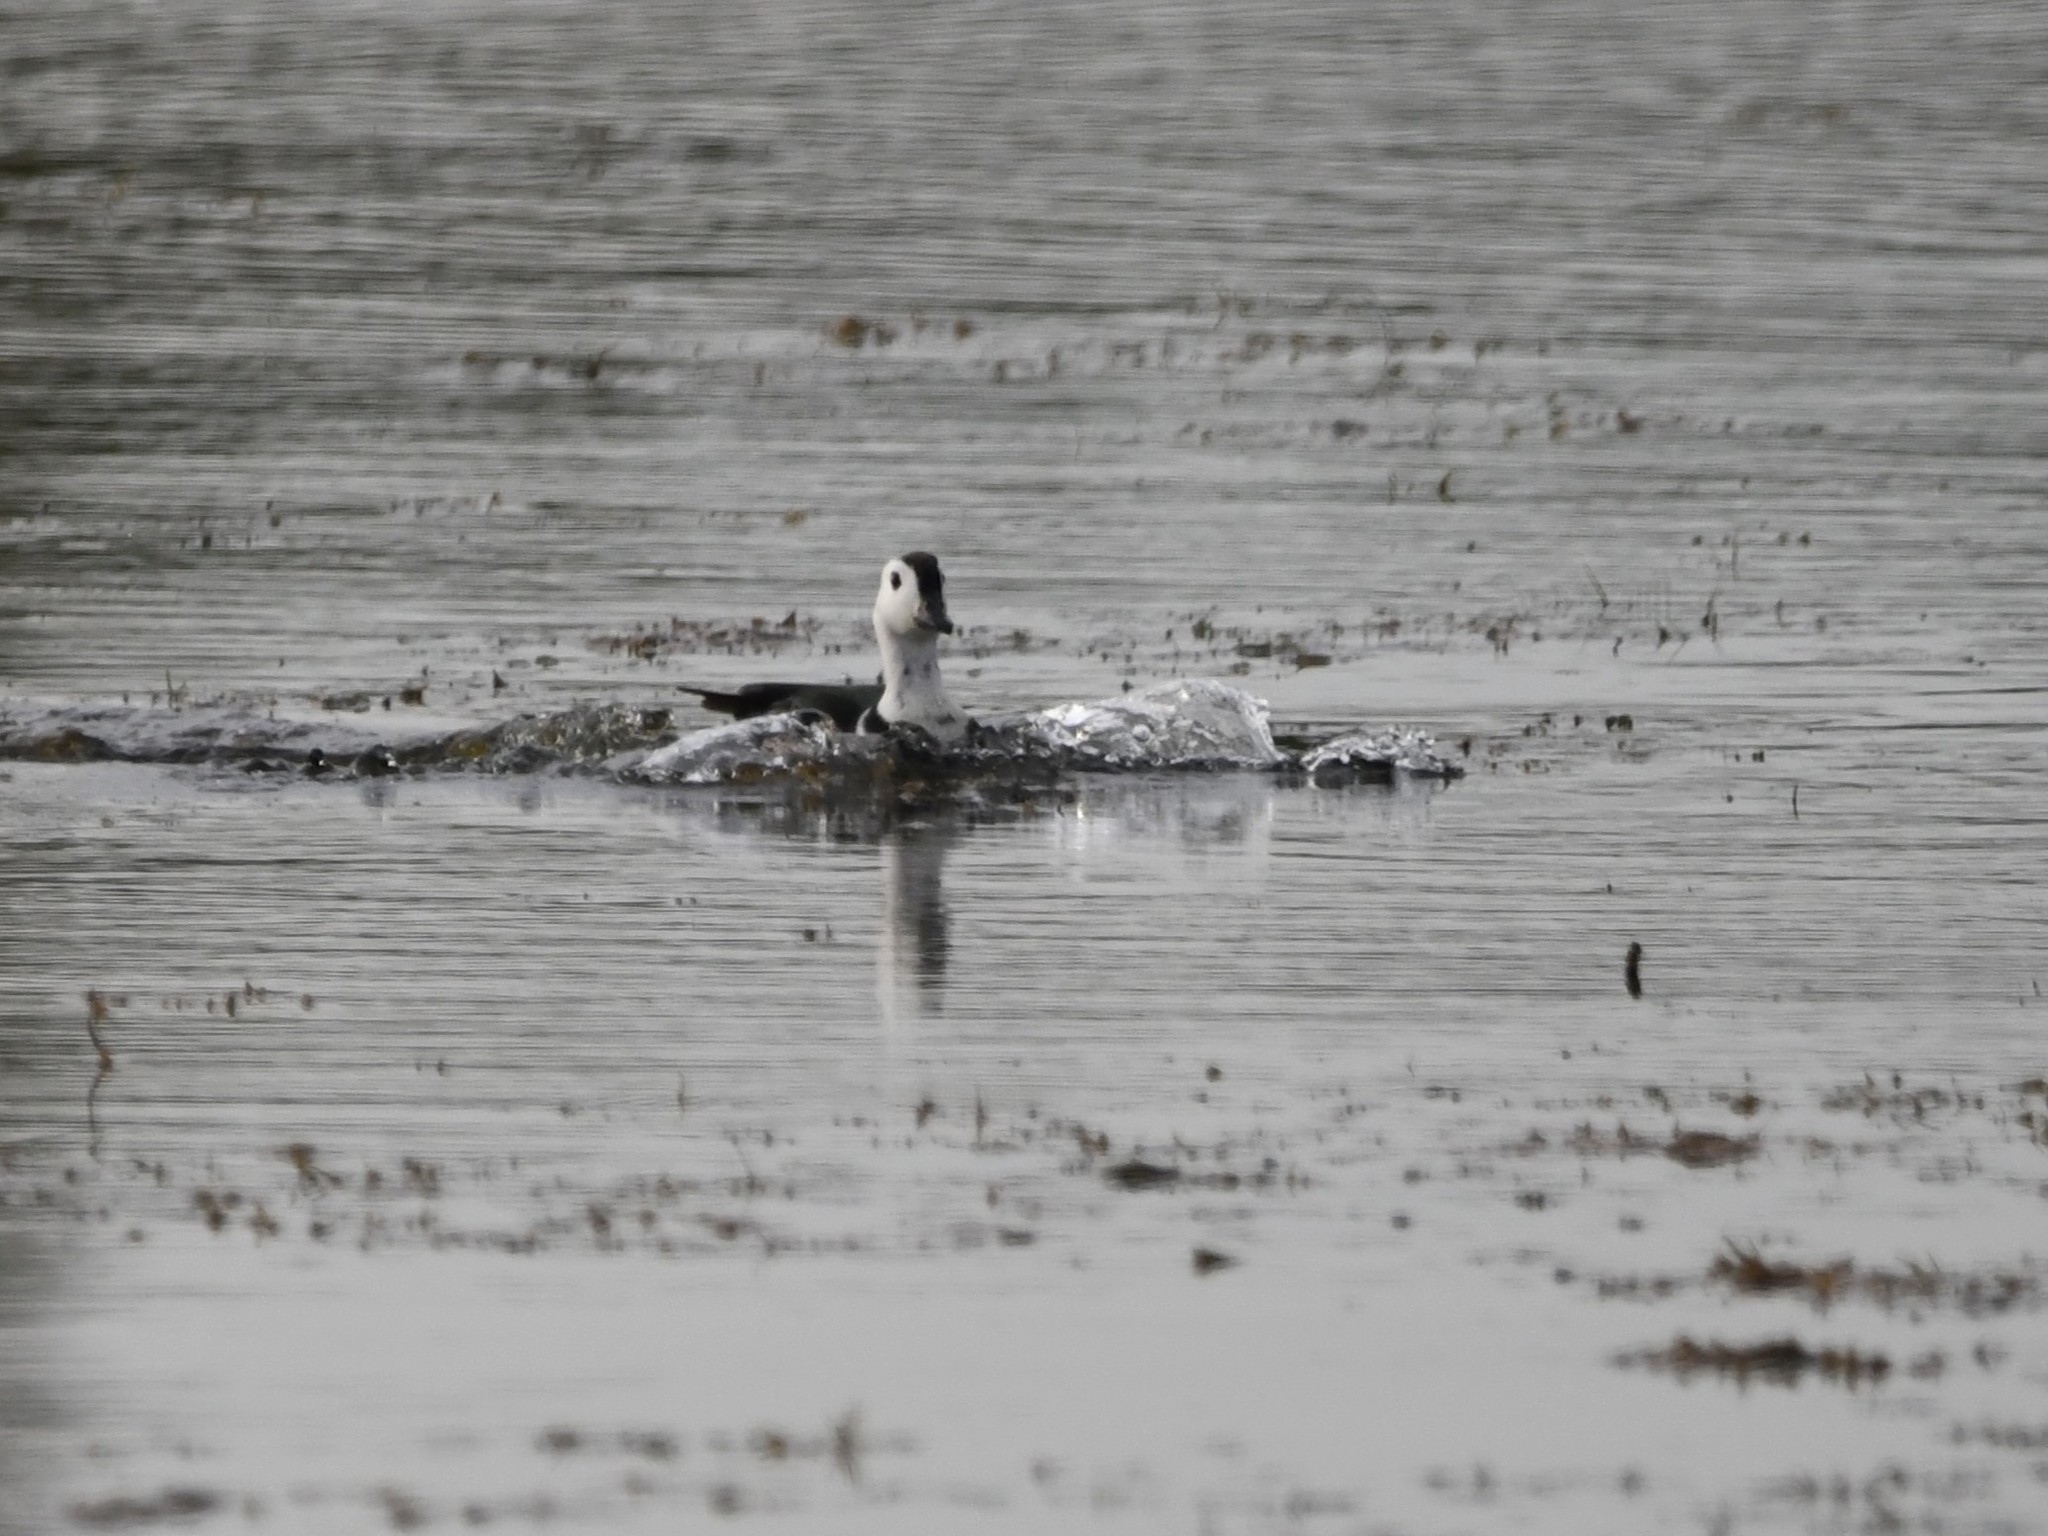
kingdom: Animalia
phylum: Chordata
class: Aves
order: Anseriformes
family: Anatidae
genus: Nettapus
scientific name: Nettapus coromandelianus
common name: Cotton pygmy-goose
